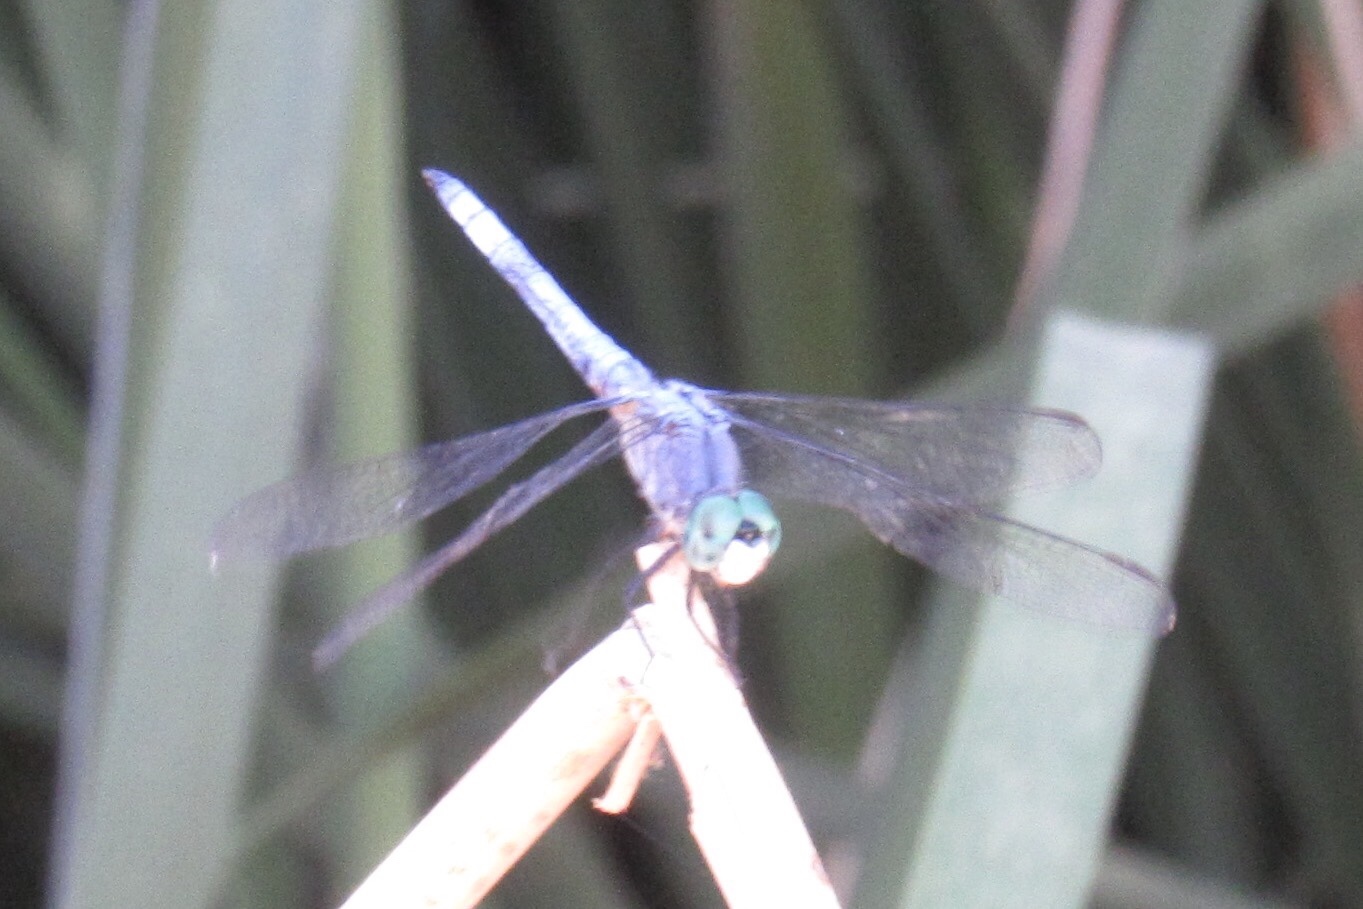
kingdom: Animalia
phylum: Arthropoda
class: Insecta
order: Odonata
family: Libellulidae
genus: Pachydiplax
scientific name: Pachydiplax longipennis
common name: Blue dasher
